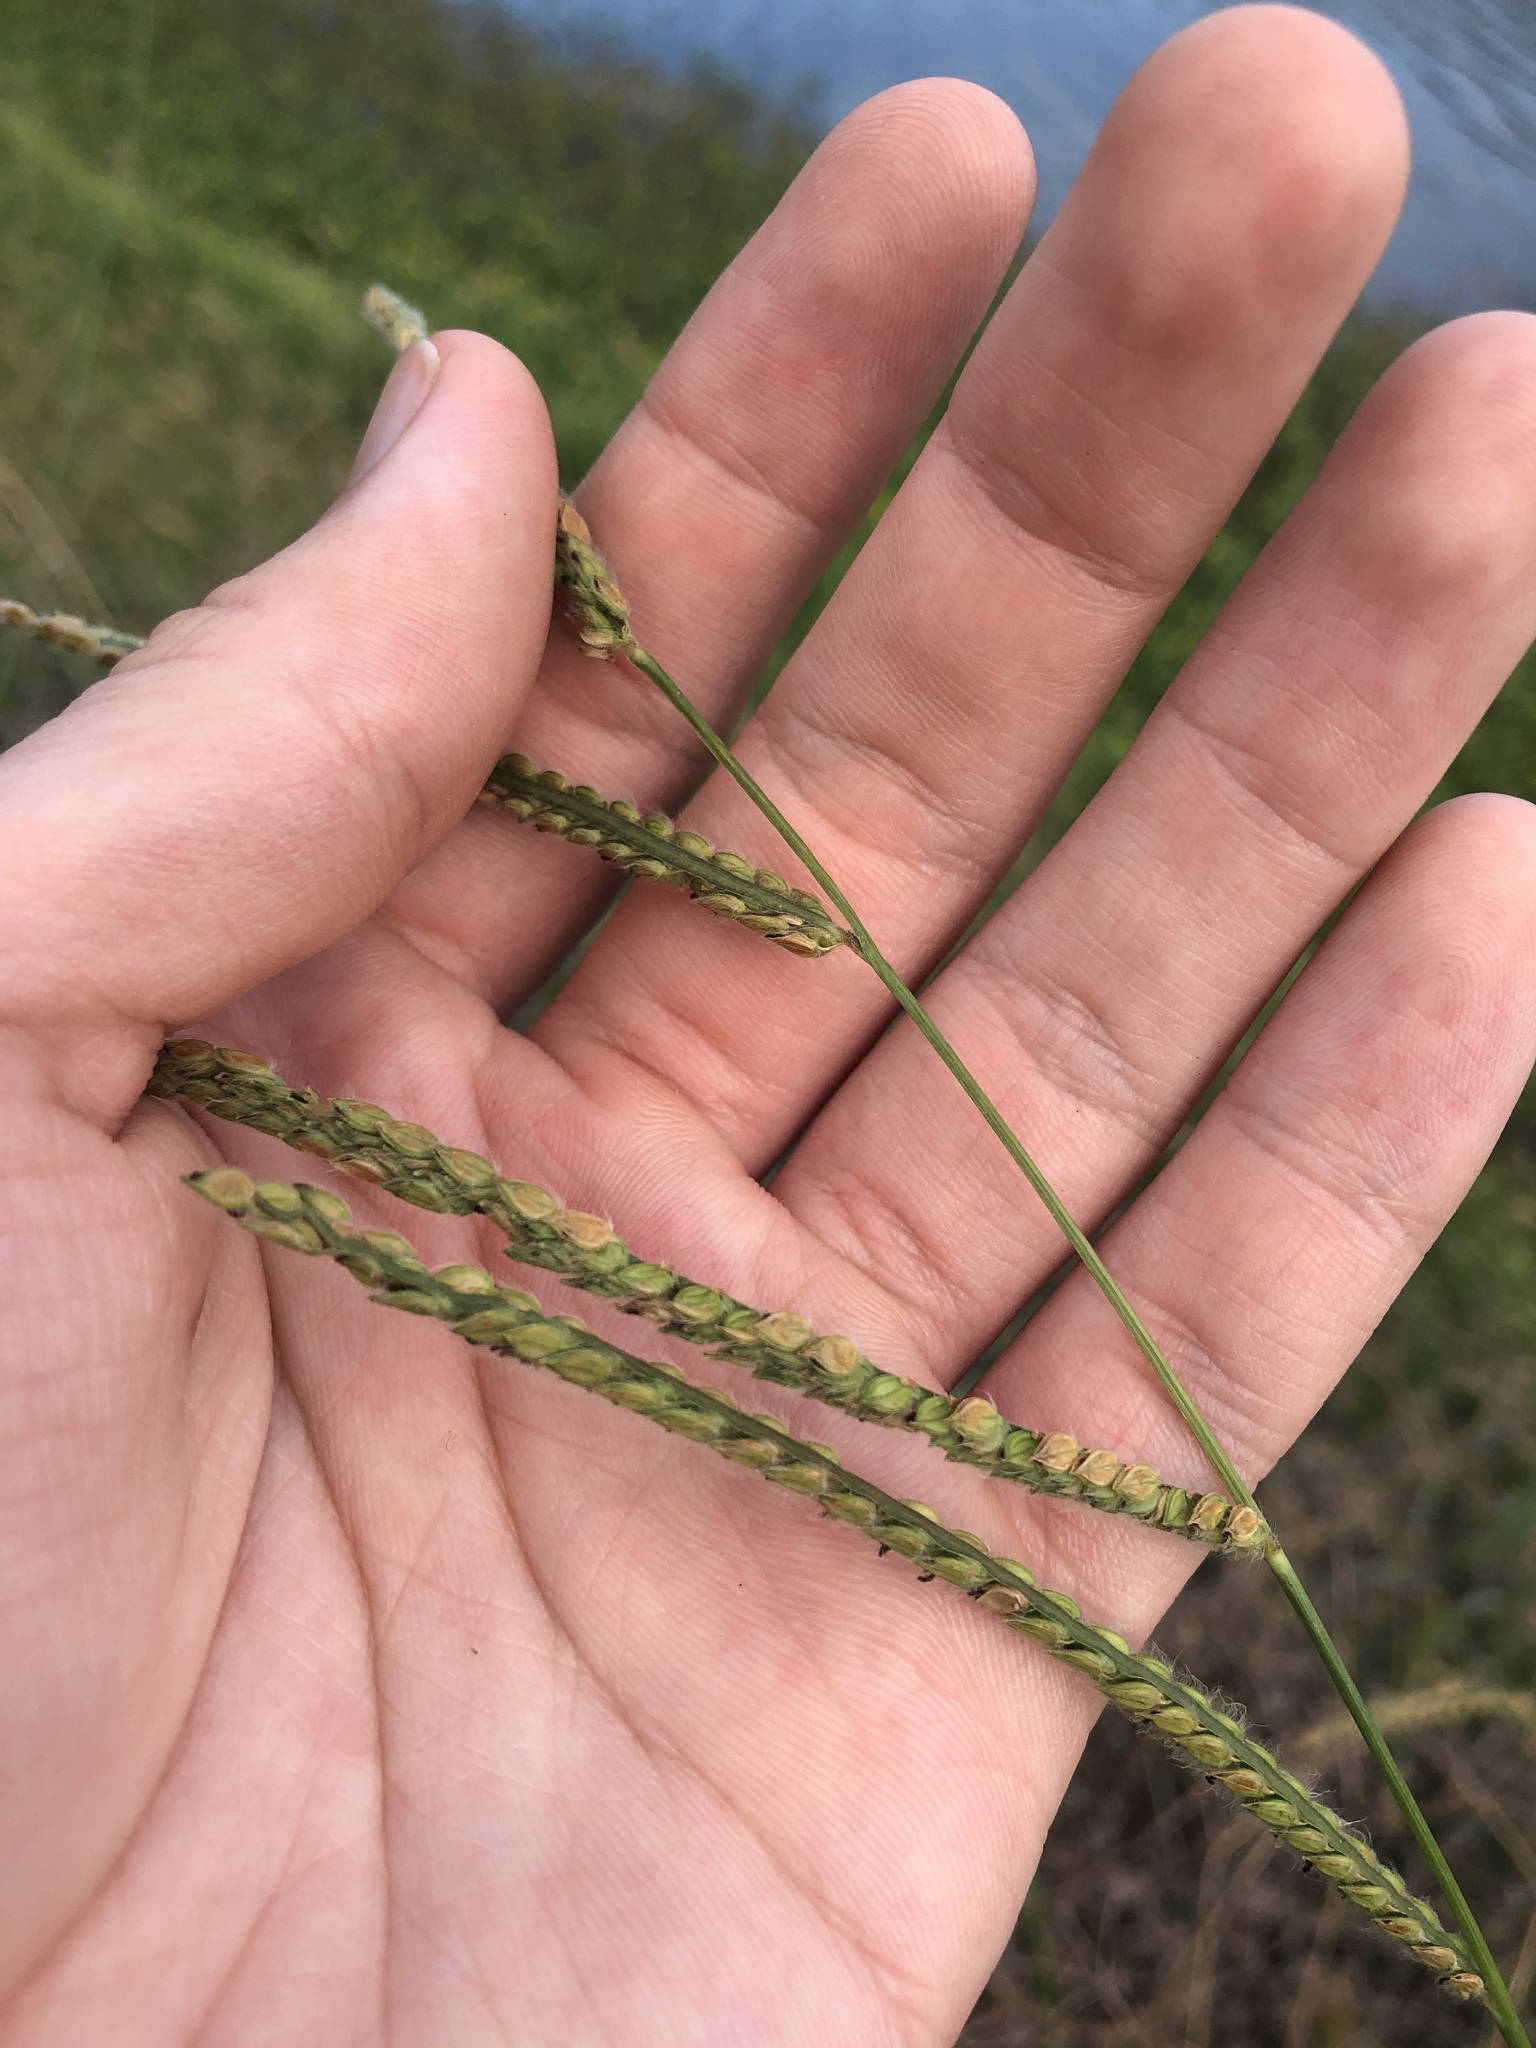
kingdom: Plantae
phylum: Tracheophyta
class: Liliopsida
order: Poales
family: Poaceae
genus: Paspalum
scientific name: Paspalum urvillei
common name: Vasey's grass
